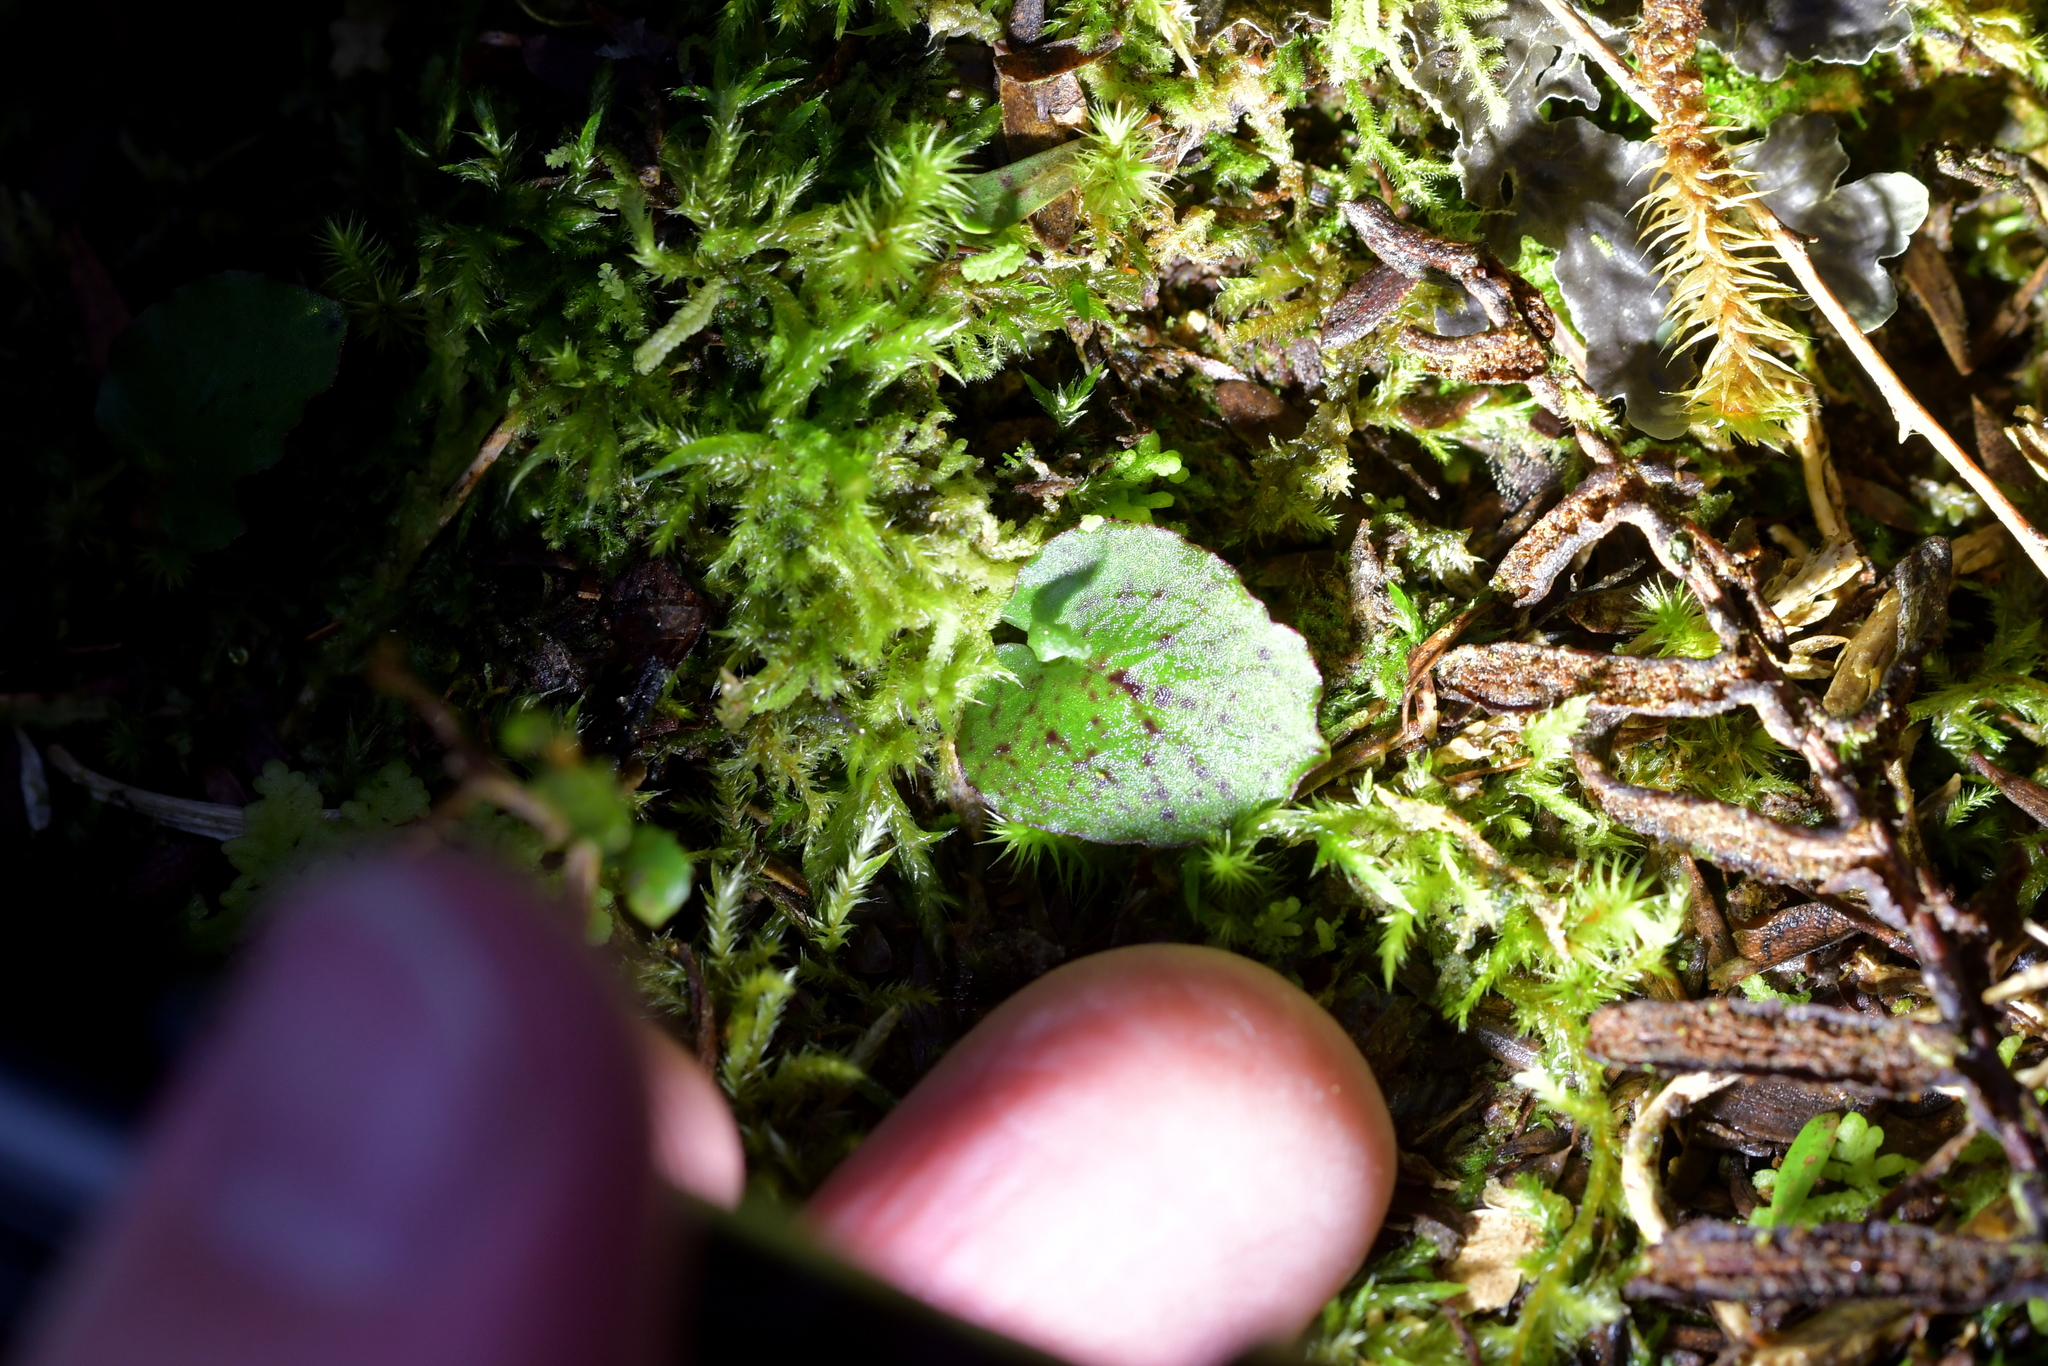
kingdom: Plantae
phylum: Tracheophyta
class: Liliopsida
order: Asparagales
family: Orchidaceae
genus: Corybas
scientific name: Corybas oblongus
